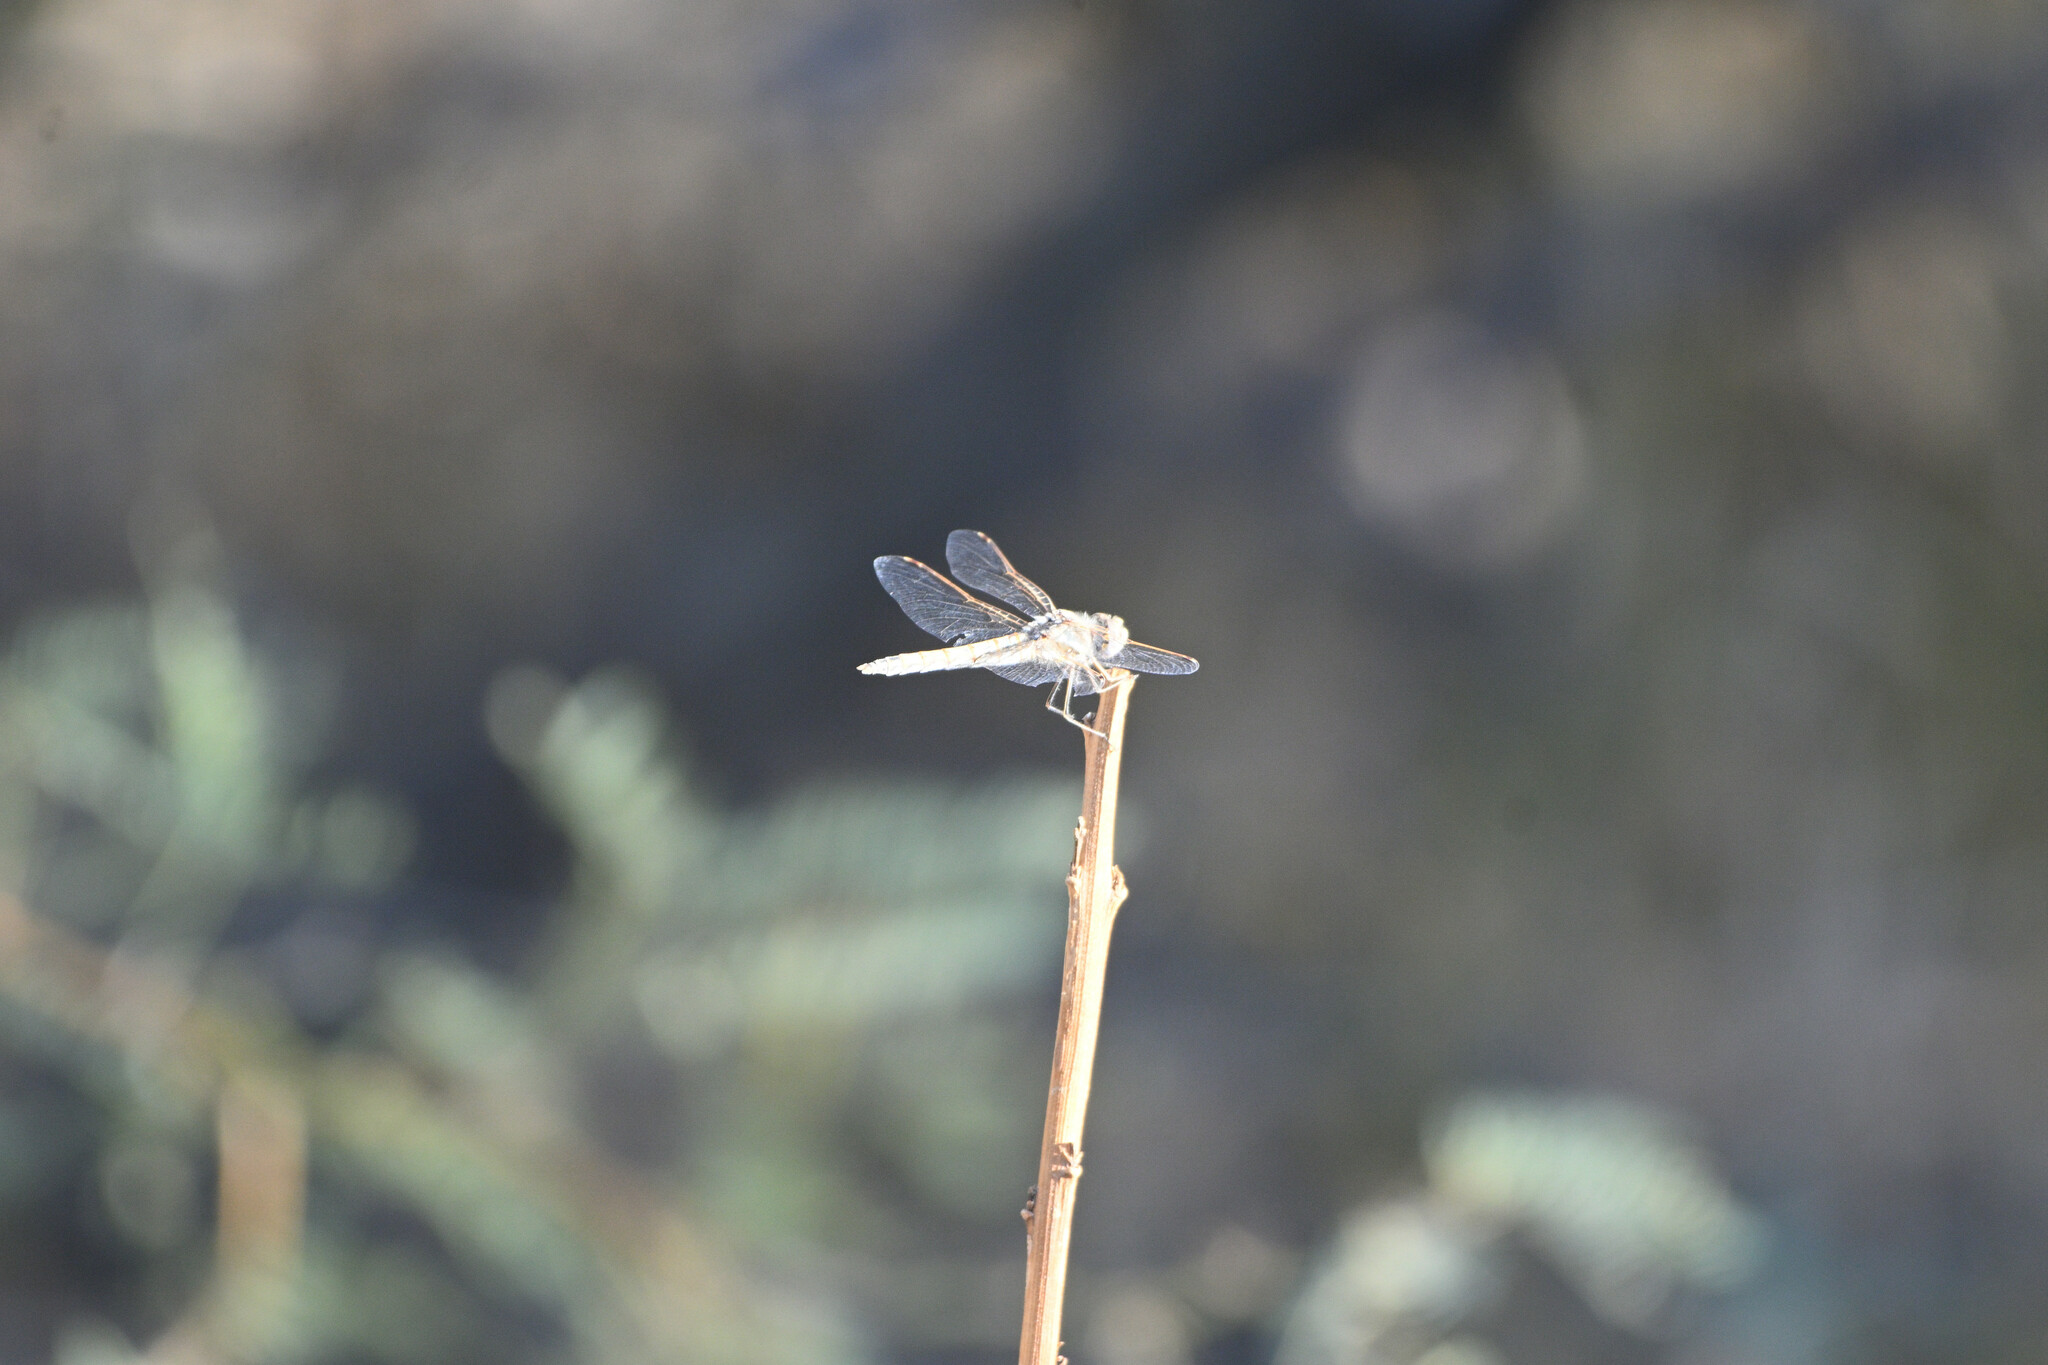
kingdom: Animalia
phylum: Arthropoda
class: Insecta
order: Odonata
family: Libellulidae
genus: Sympetrum
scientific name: Sympetrum corruptum
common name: Variegated meadowhawk
